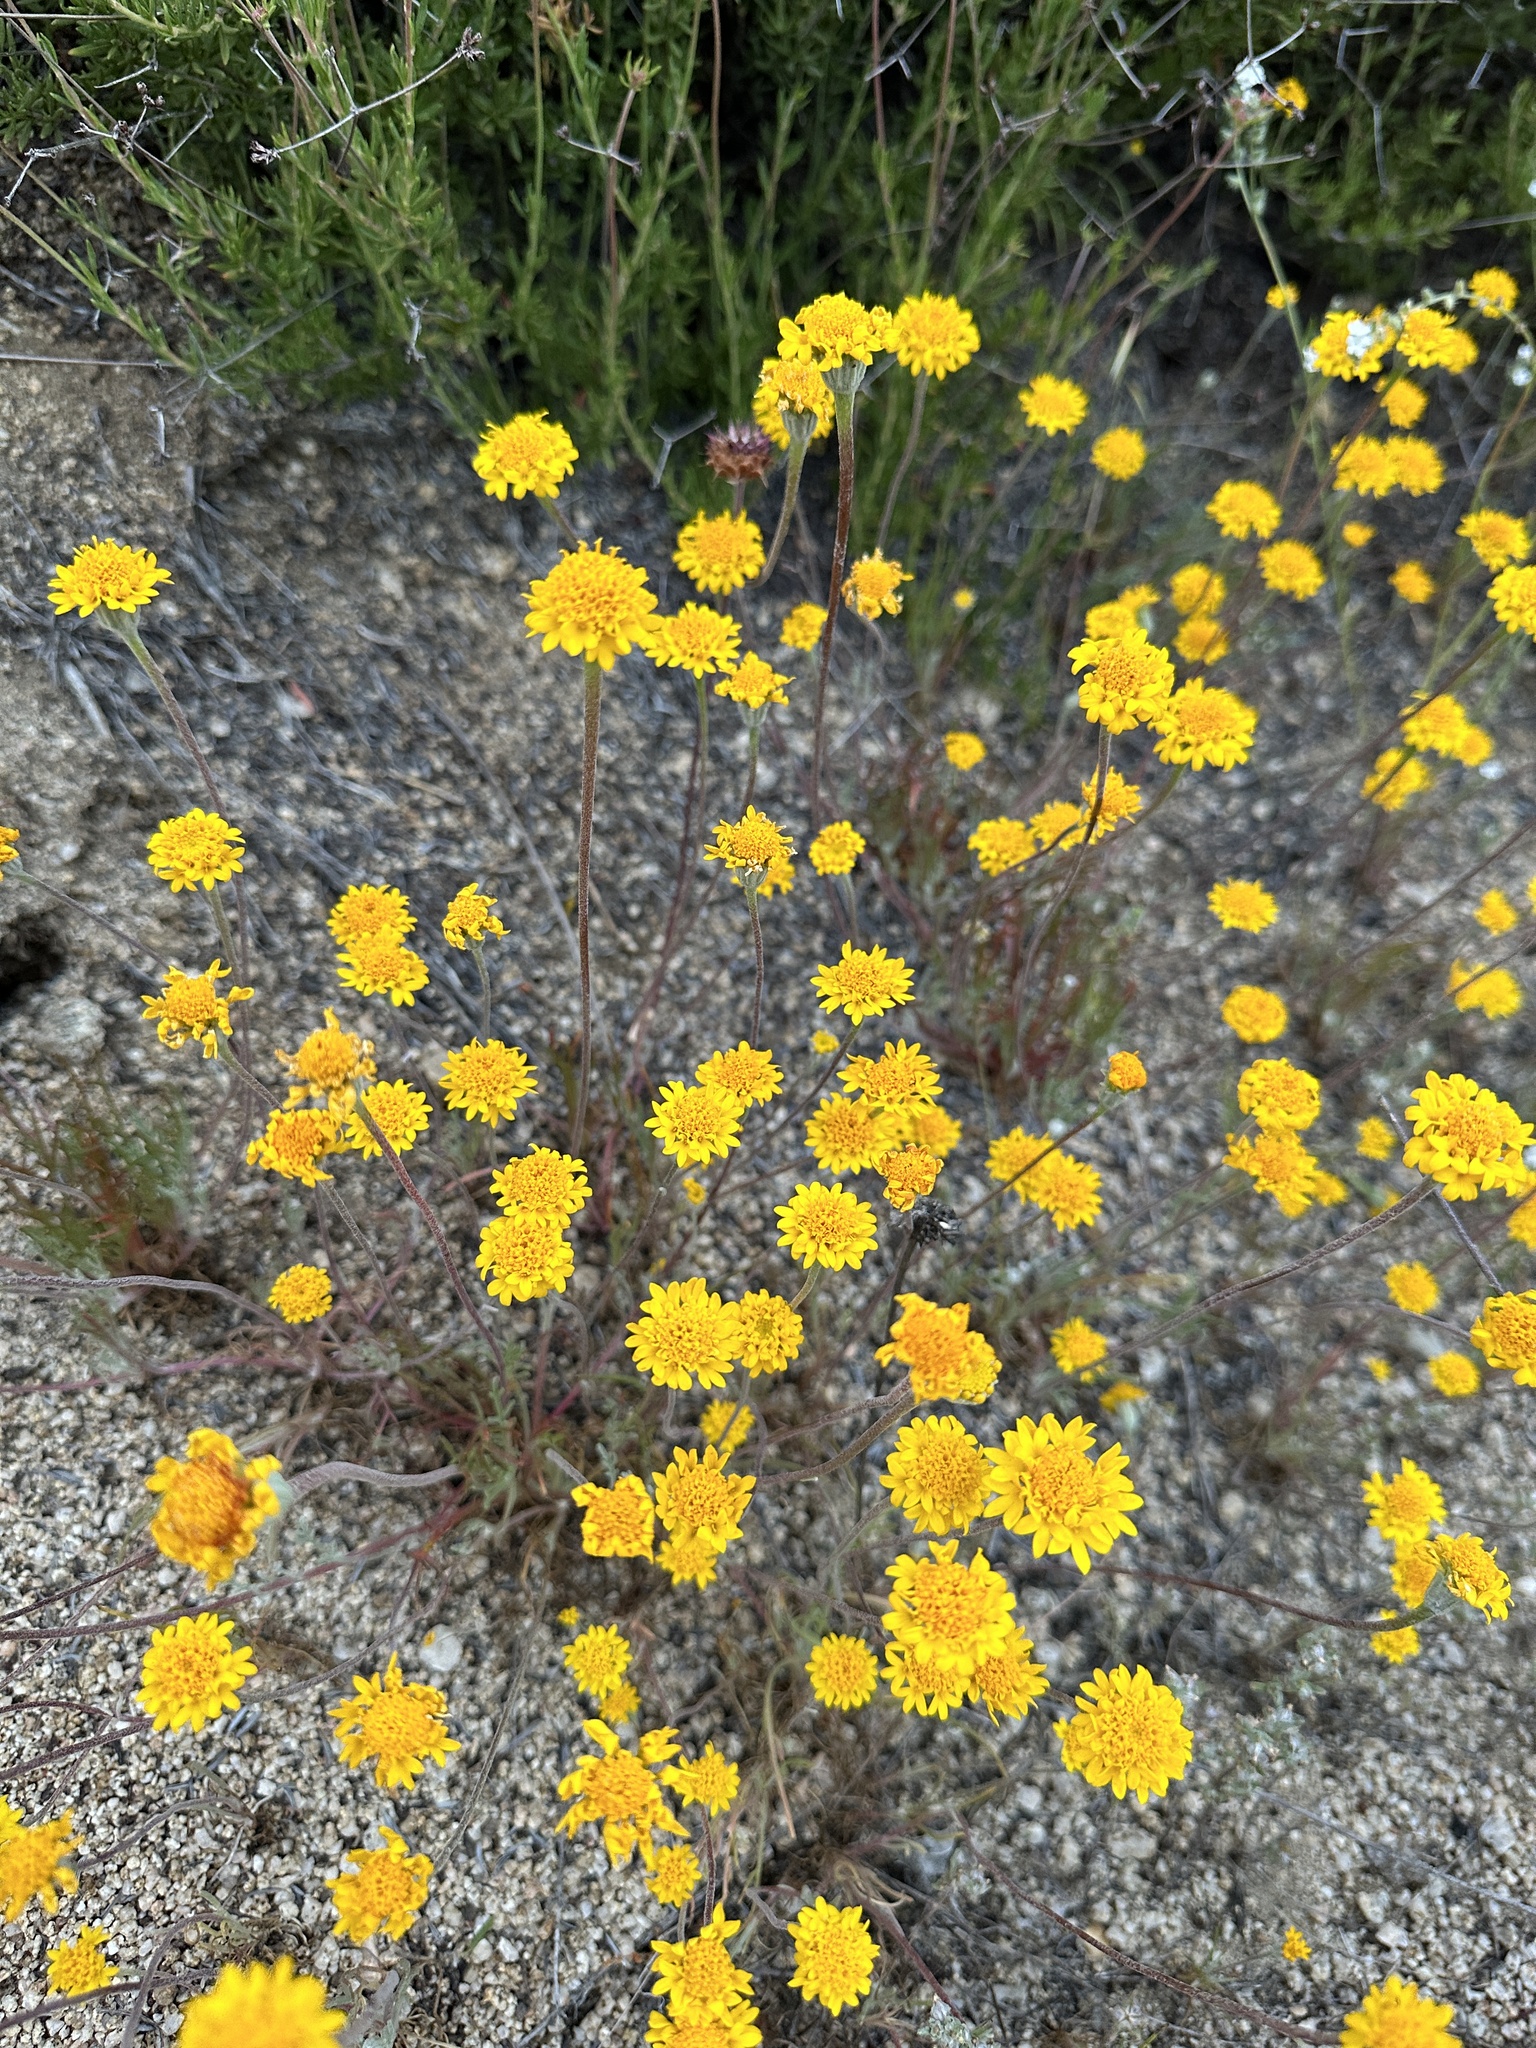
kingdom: Plantae
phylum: Tracheophyta
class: Magnoliopsida
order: Asterales
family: Asteraceae
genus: Chaenactis
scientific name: Chaenactis glabriuscula
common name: Yellow pincushion
